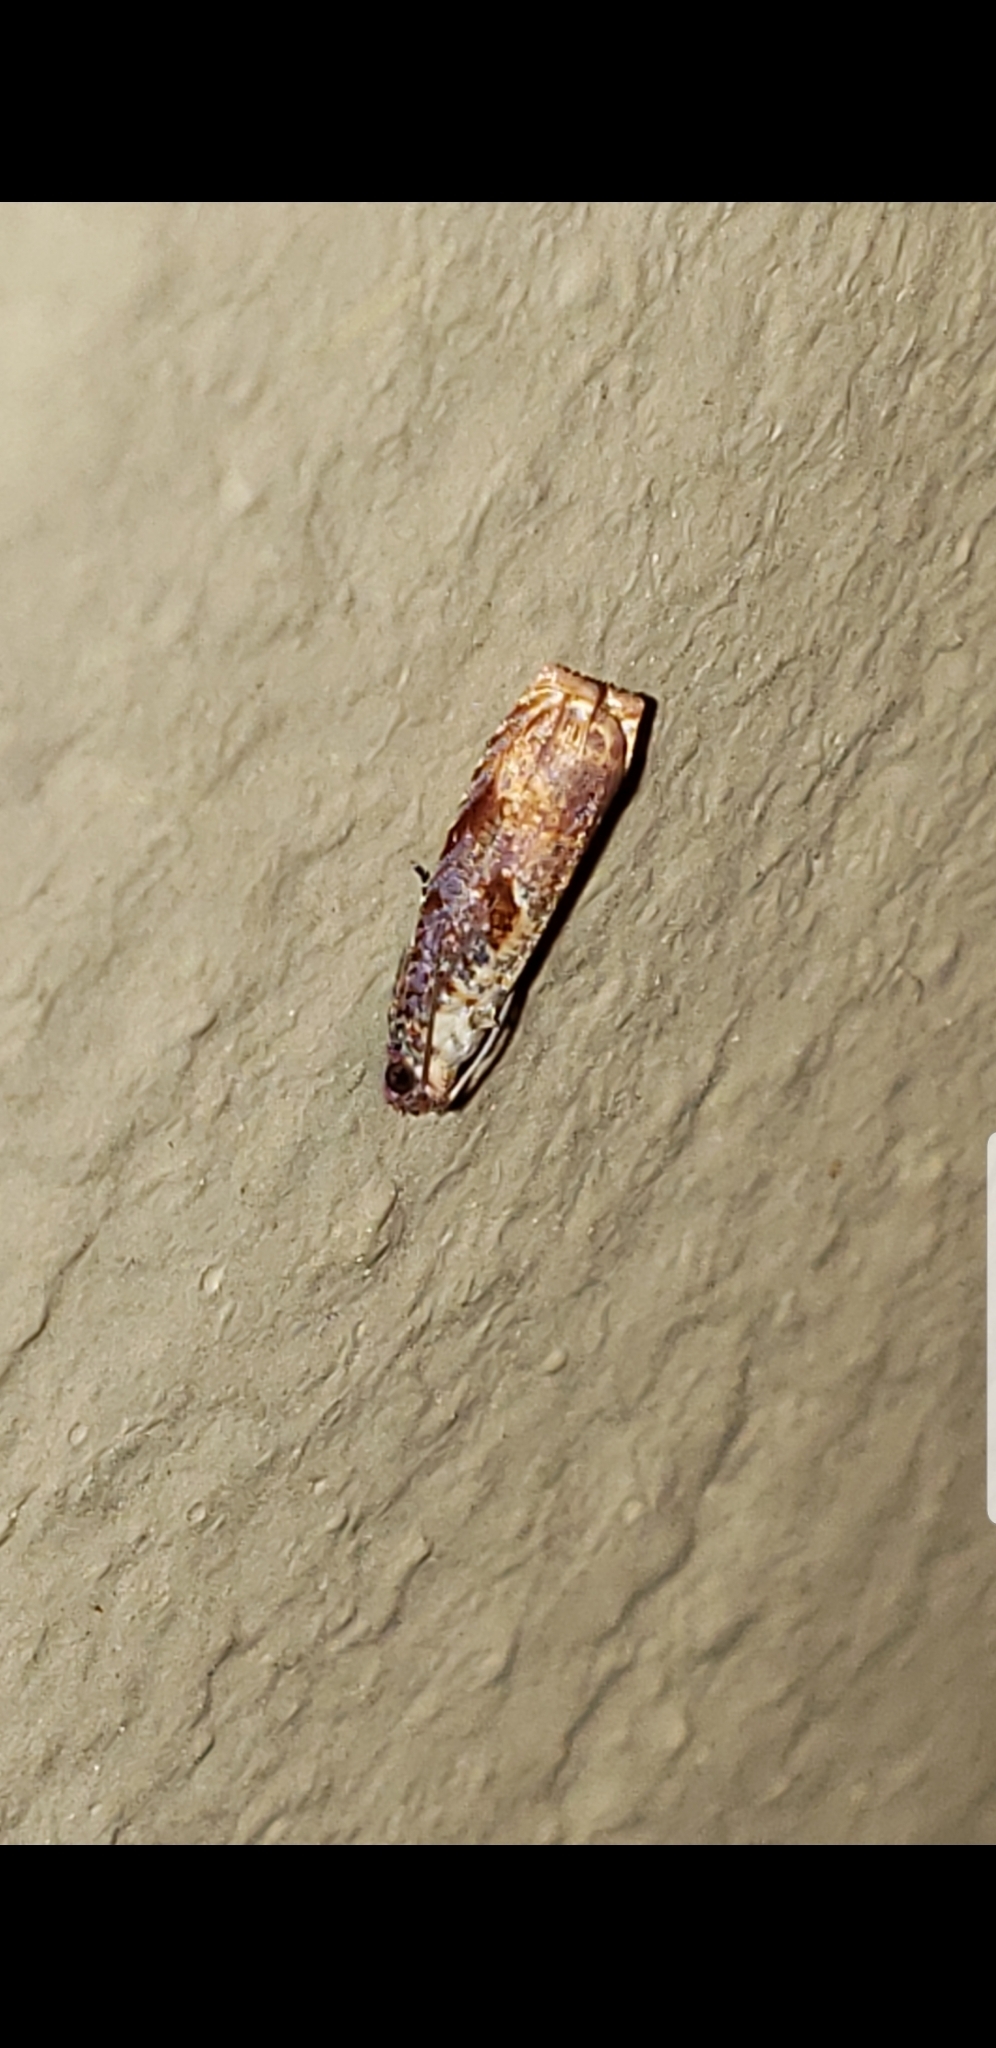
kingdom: Animalia
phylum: Arthropoda
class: Insecta
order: Lepidoptera
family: Tortricidae
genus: Episimus
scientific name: Episimus tyrius
